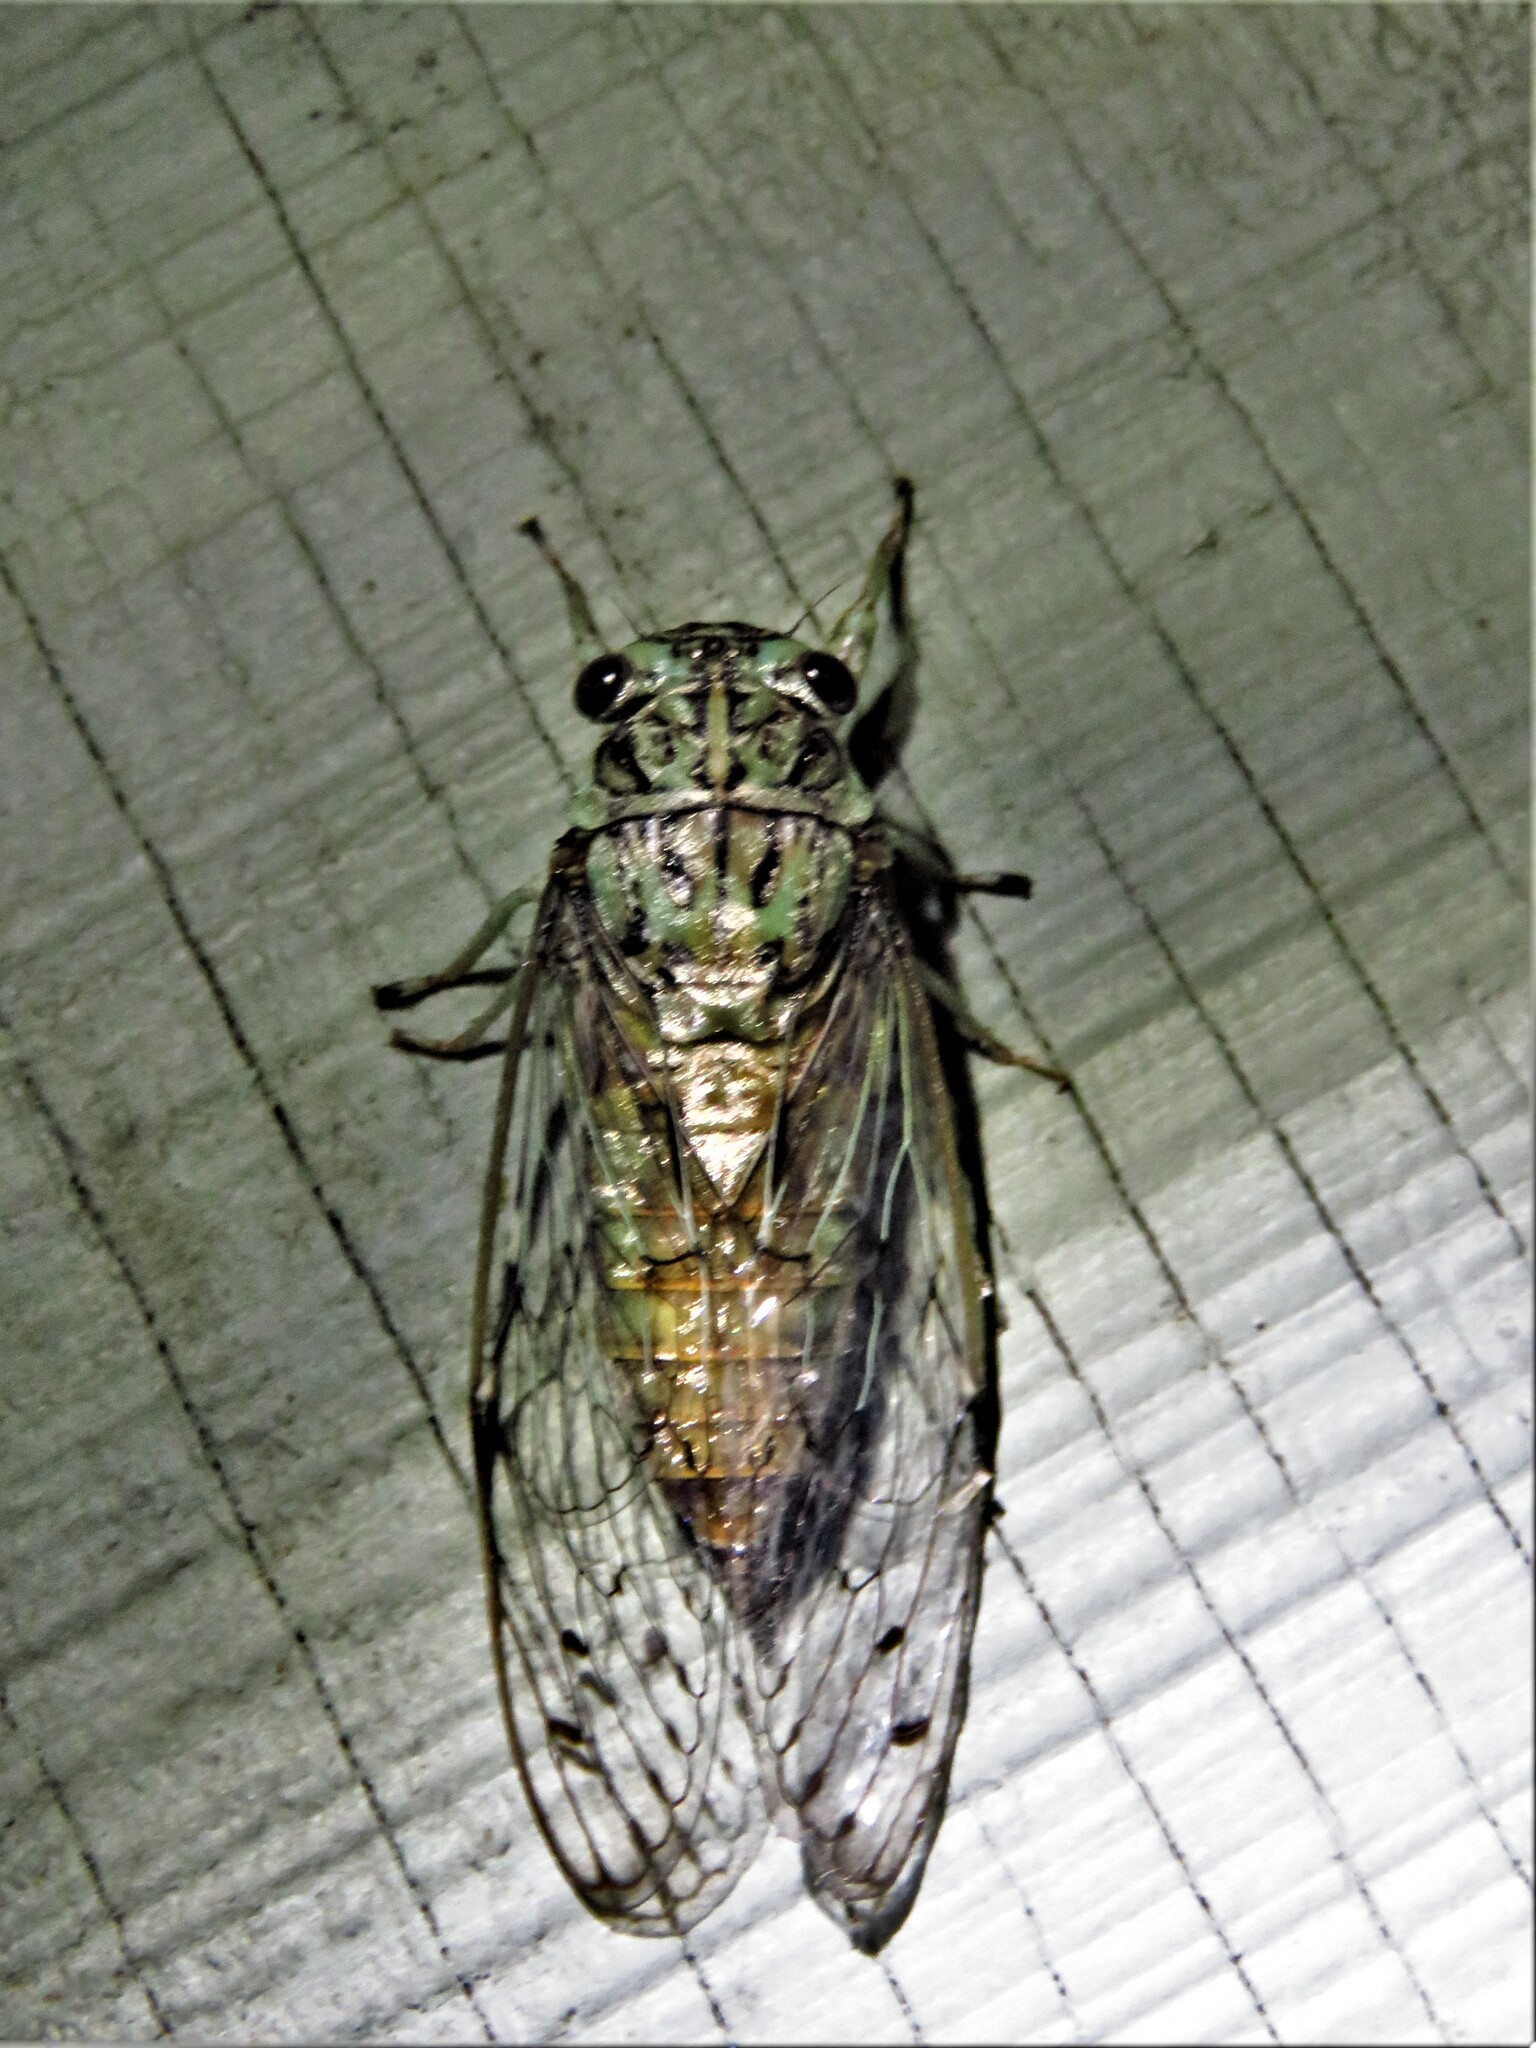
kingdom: Animalia
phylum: Arthropoda
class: Insecta
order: Hemiptera
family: Cicadidae
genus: Neocicada
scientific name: Neocicada hieroglyphica
